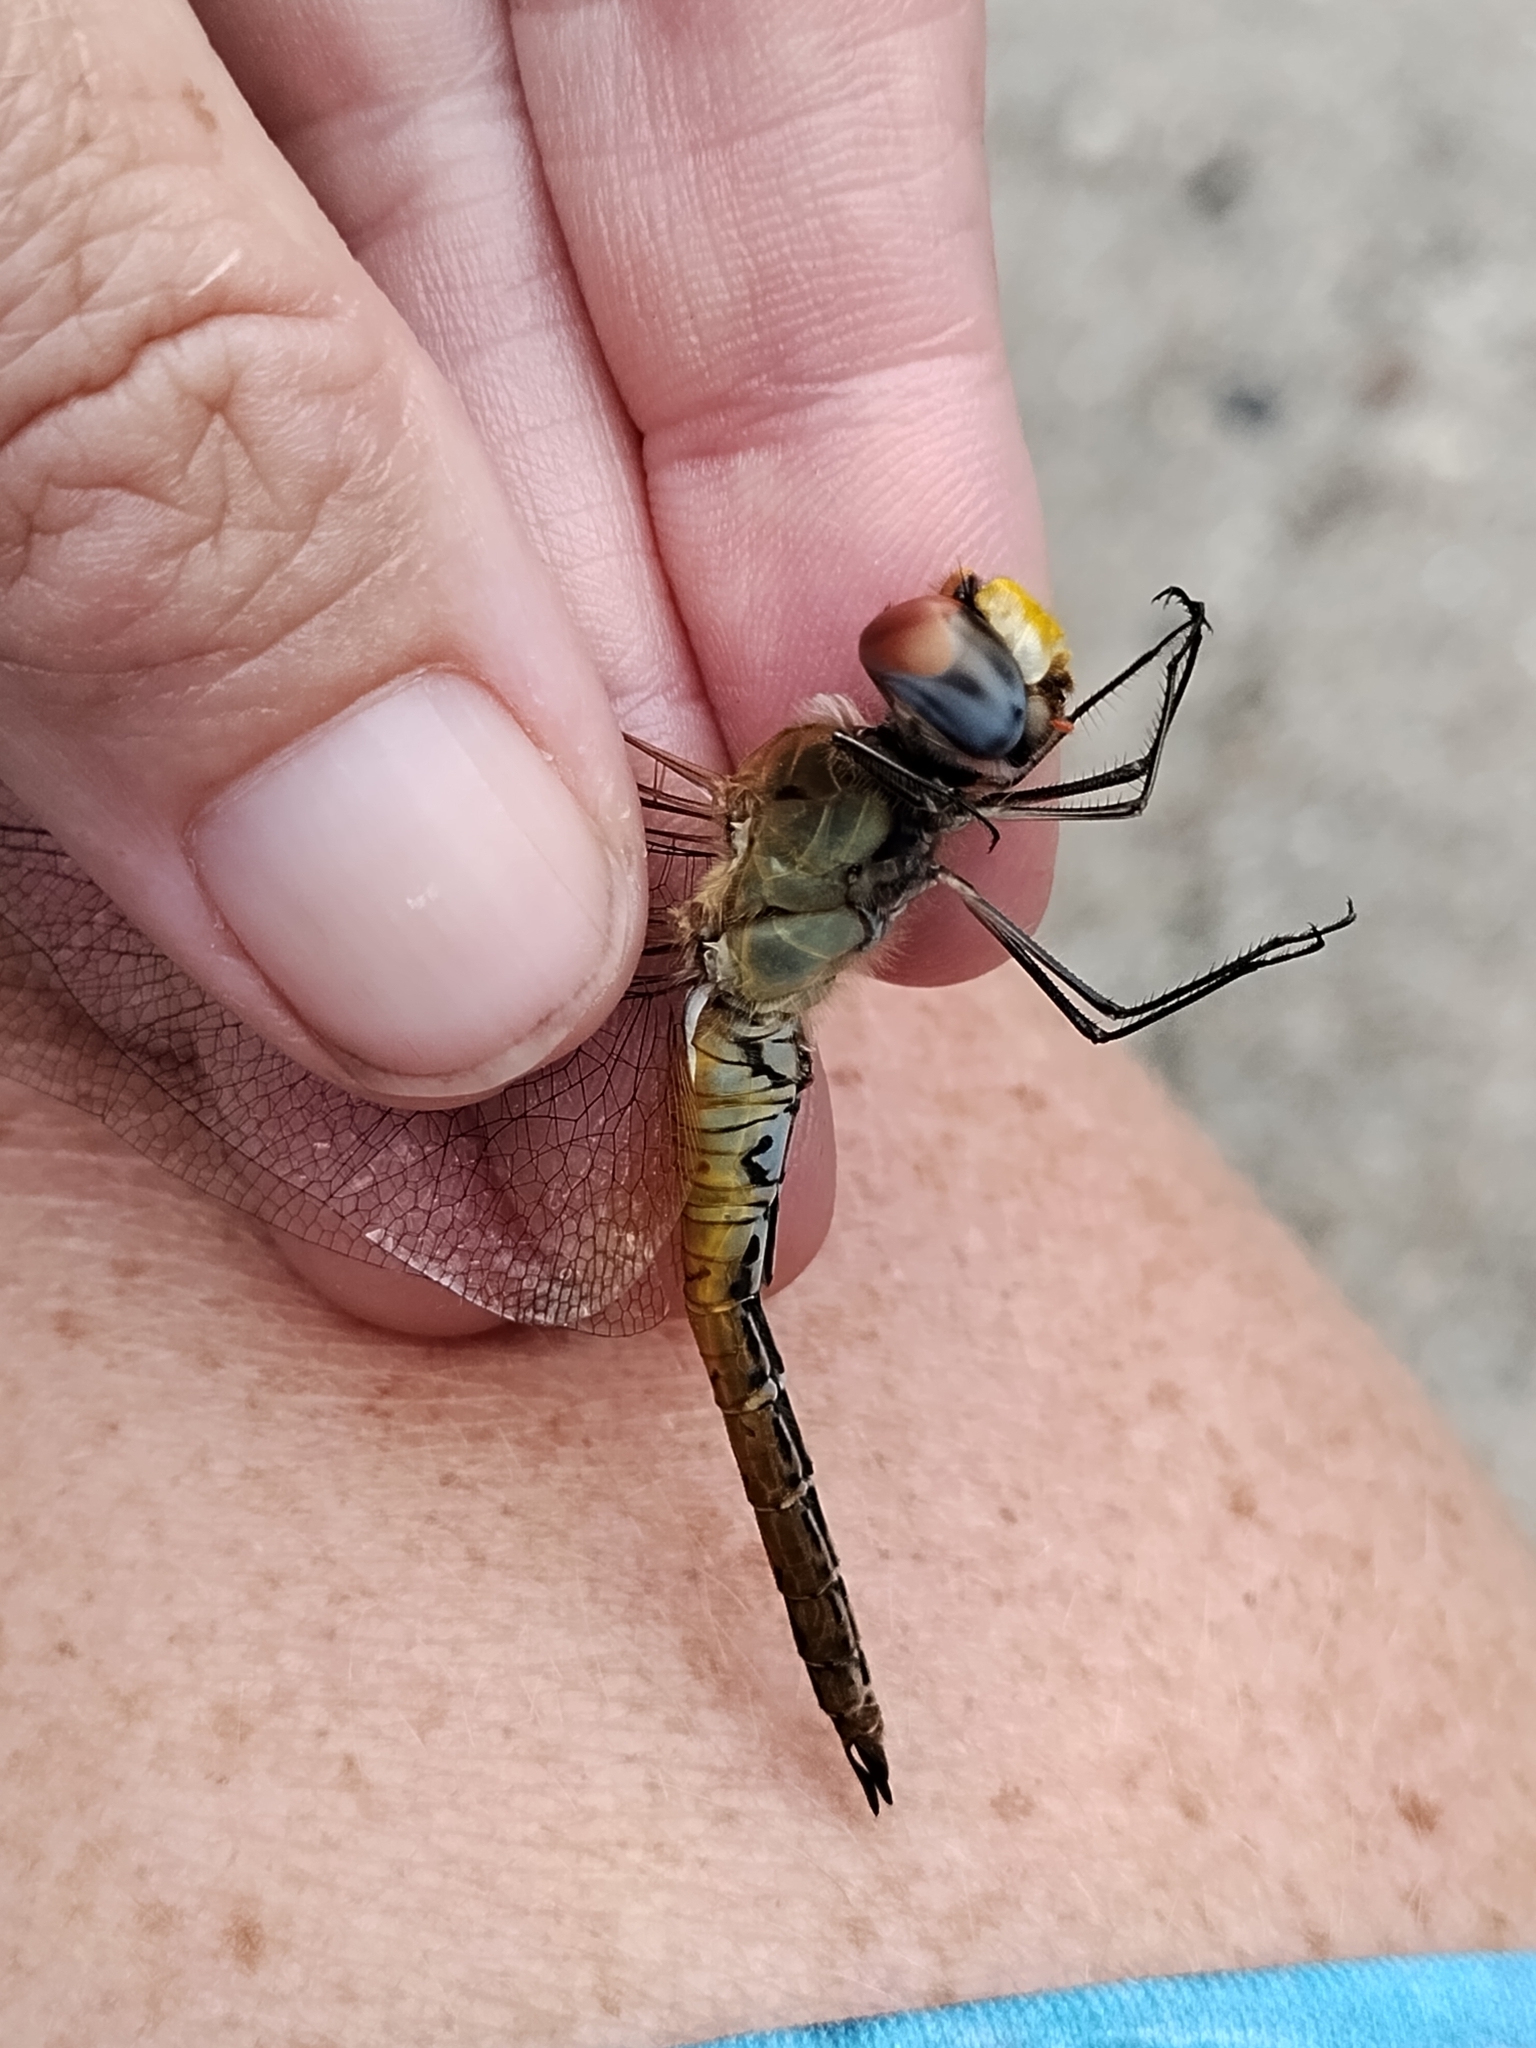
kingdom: Animalia
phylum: Arthropoda
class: Insecta
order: Odonata
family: Libellulidae
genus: Pantala
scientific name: Pantala flavescens
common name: Wandering glider
